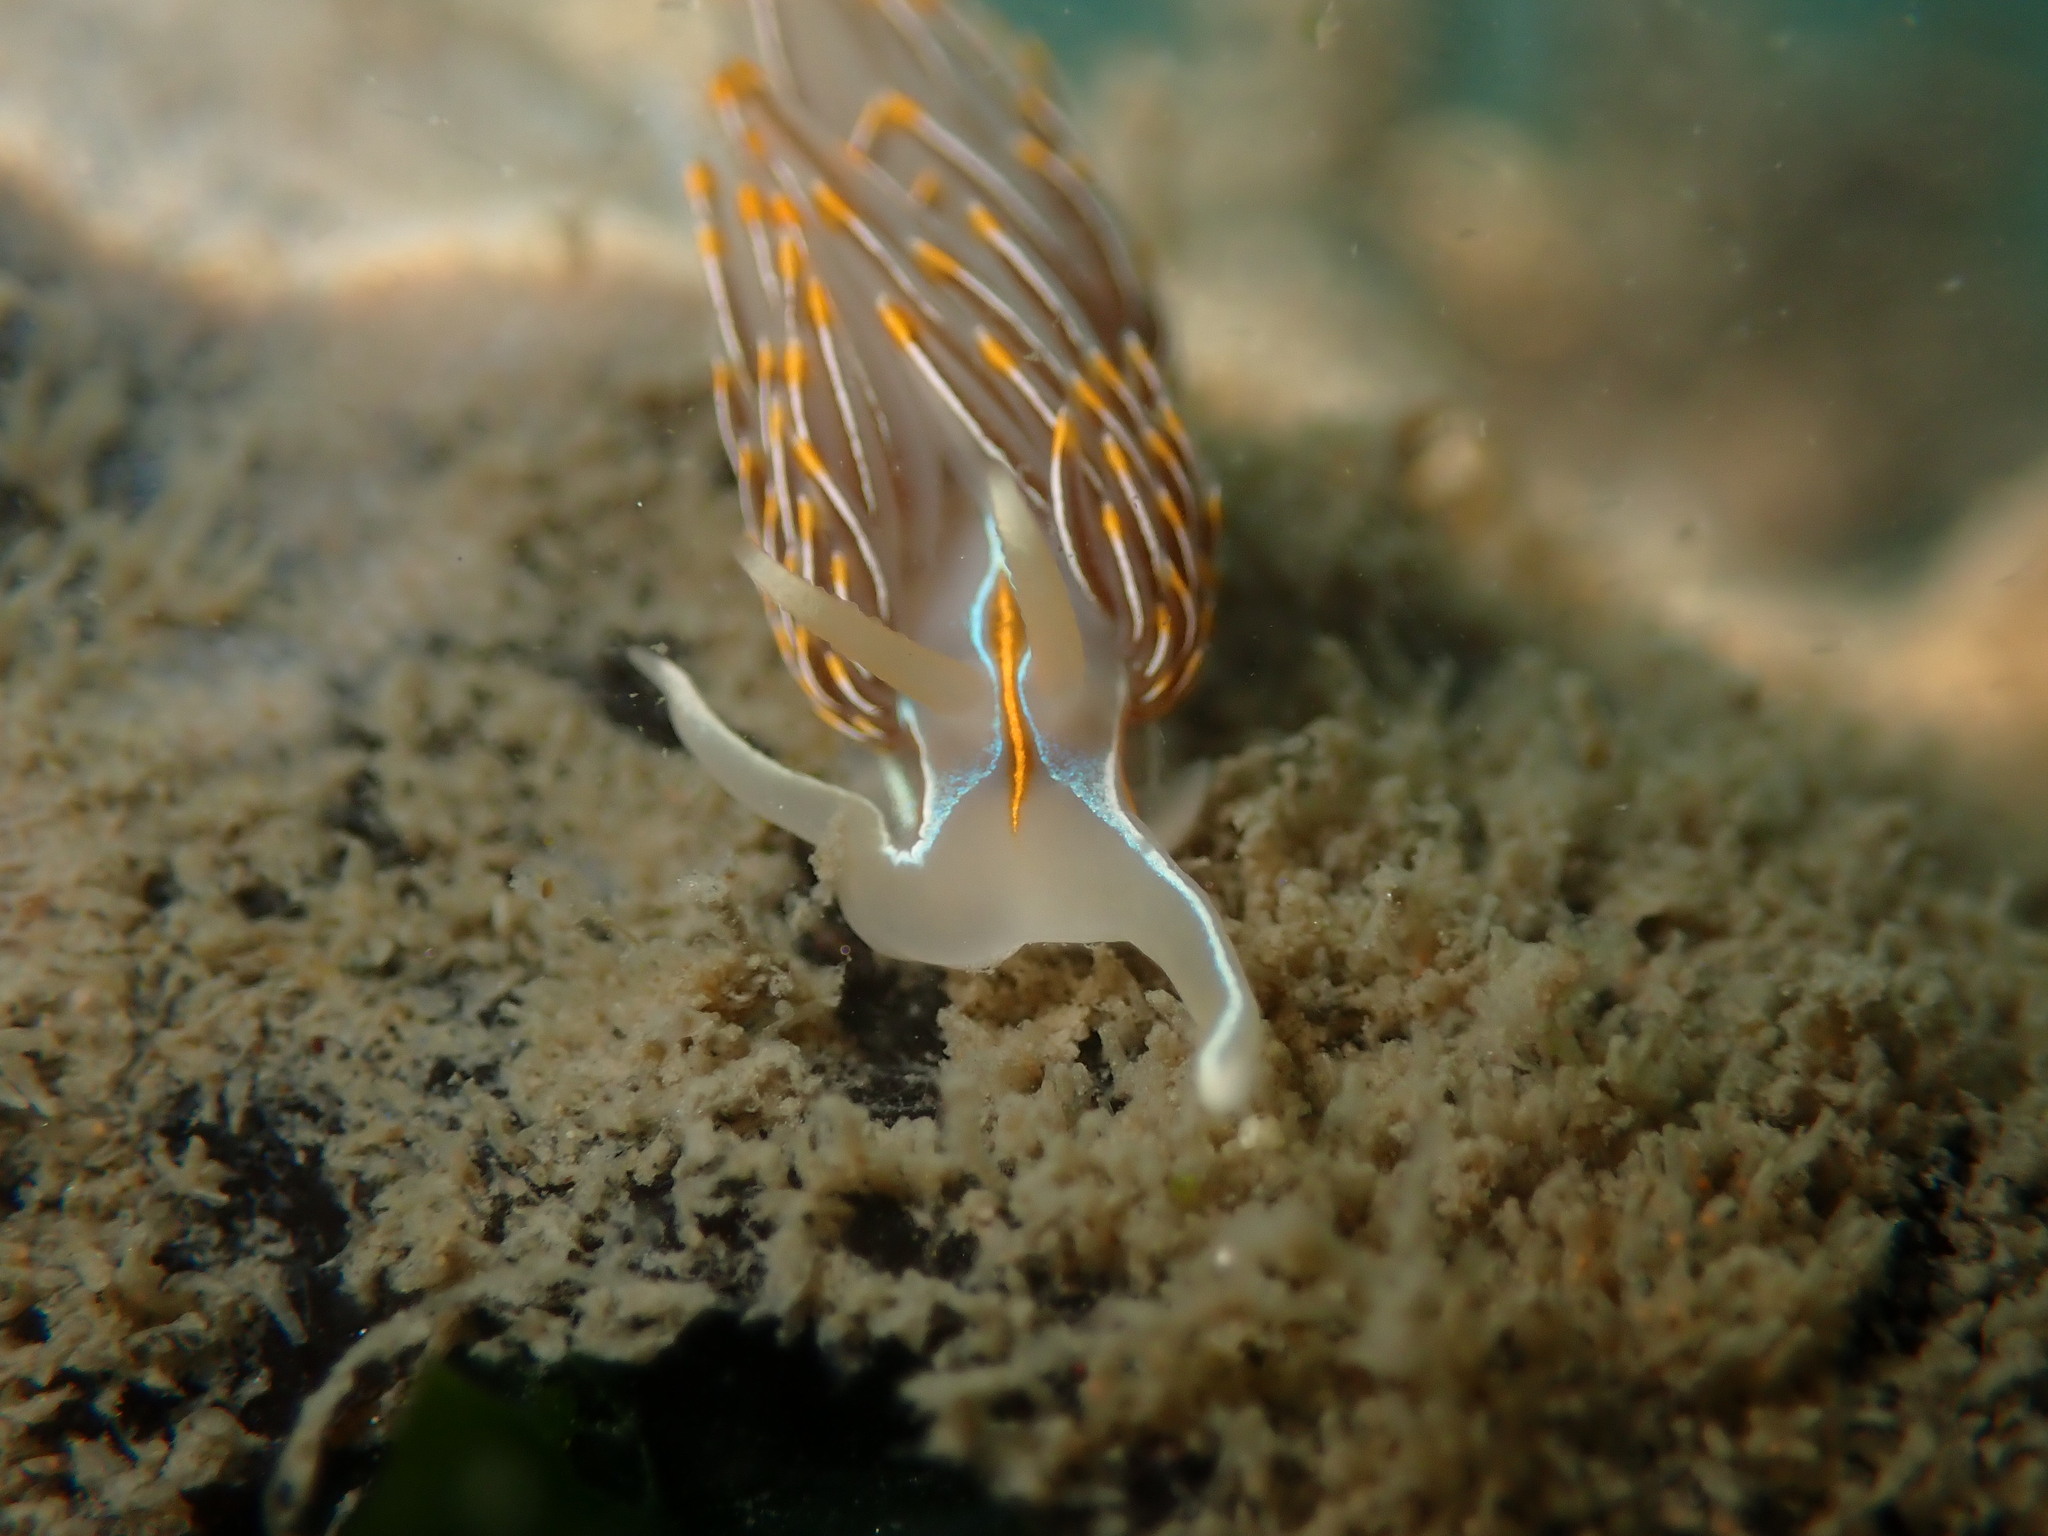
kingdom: Animalia
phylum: Mollusca
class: Gastropoda
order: Nudibranchia
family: Myrrhinidae
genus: Hermissenda
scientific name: Hermissenda crassicornis
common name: Hermissenda
